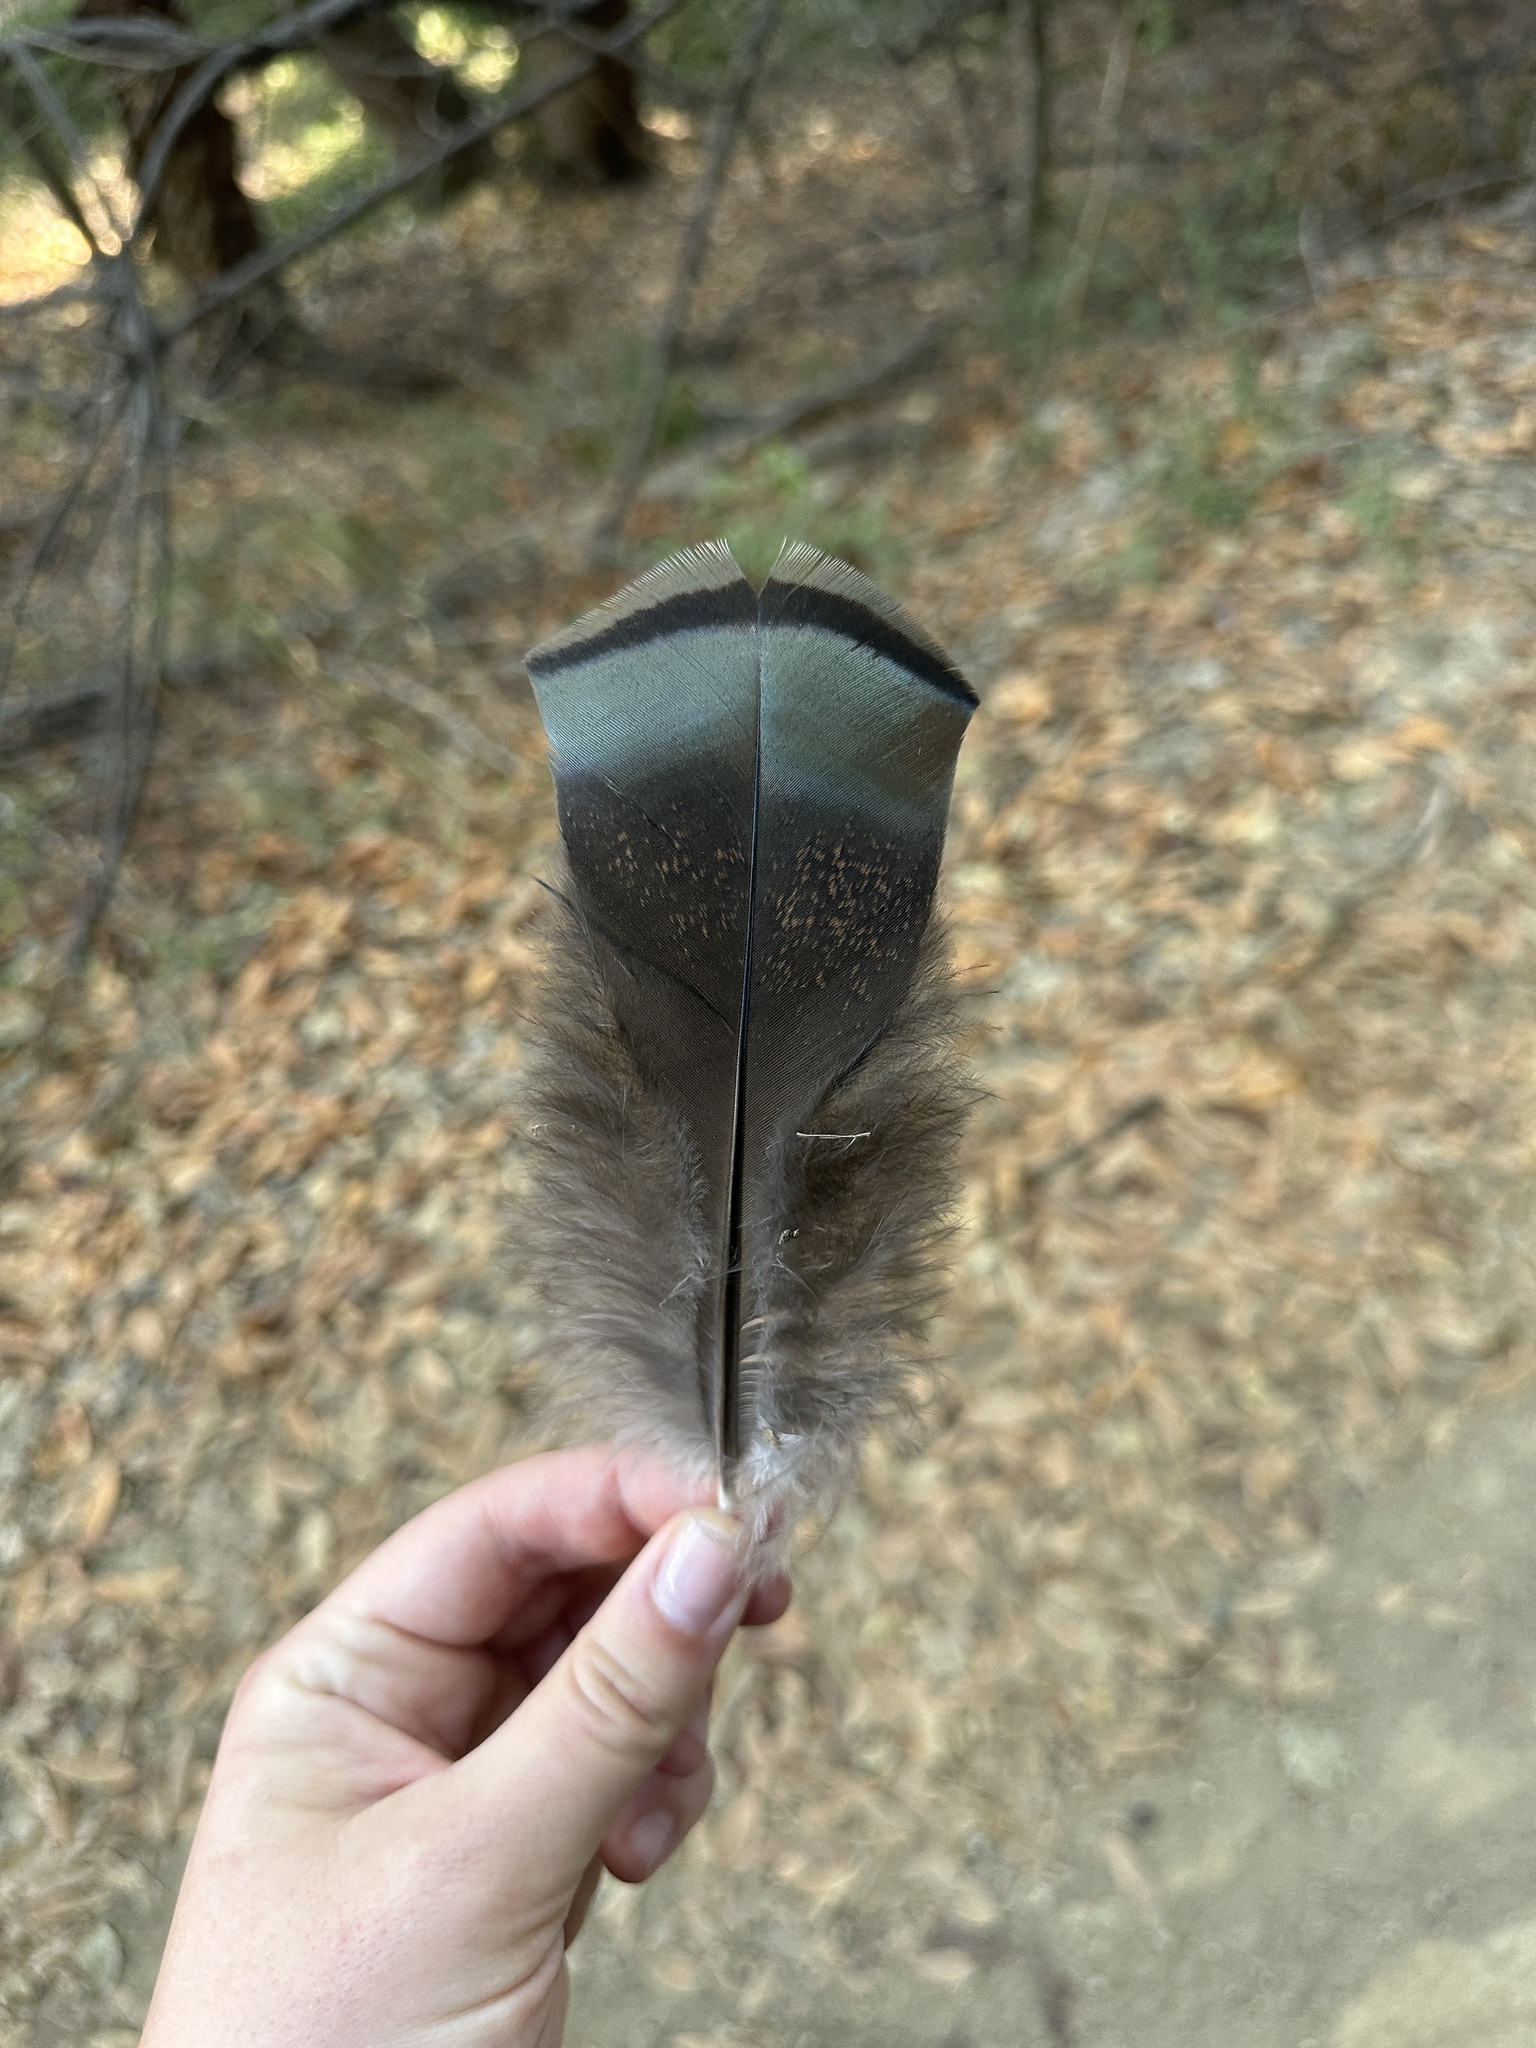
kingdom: Animalia
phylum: Chordata
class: Aves
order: Galliformes
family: Phasianidae
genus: Meleagris
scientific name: Meleagris gallopavo
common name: Wild turkey
